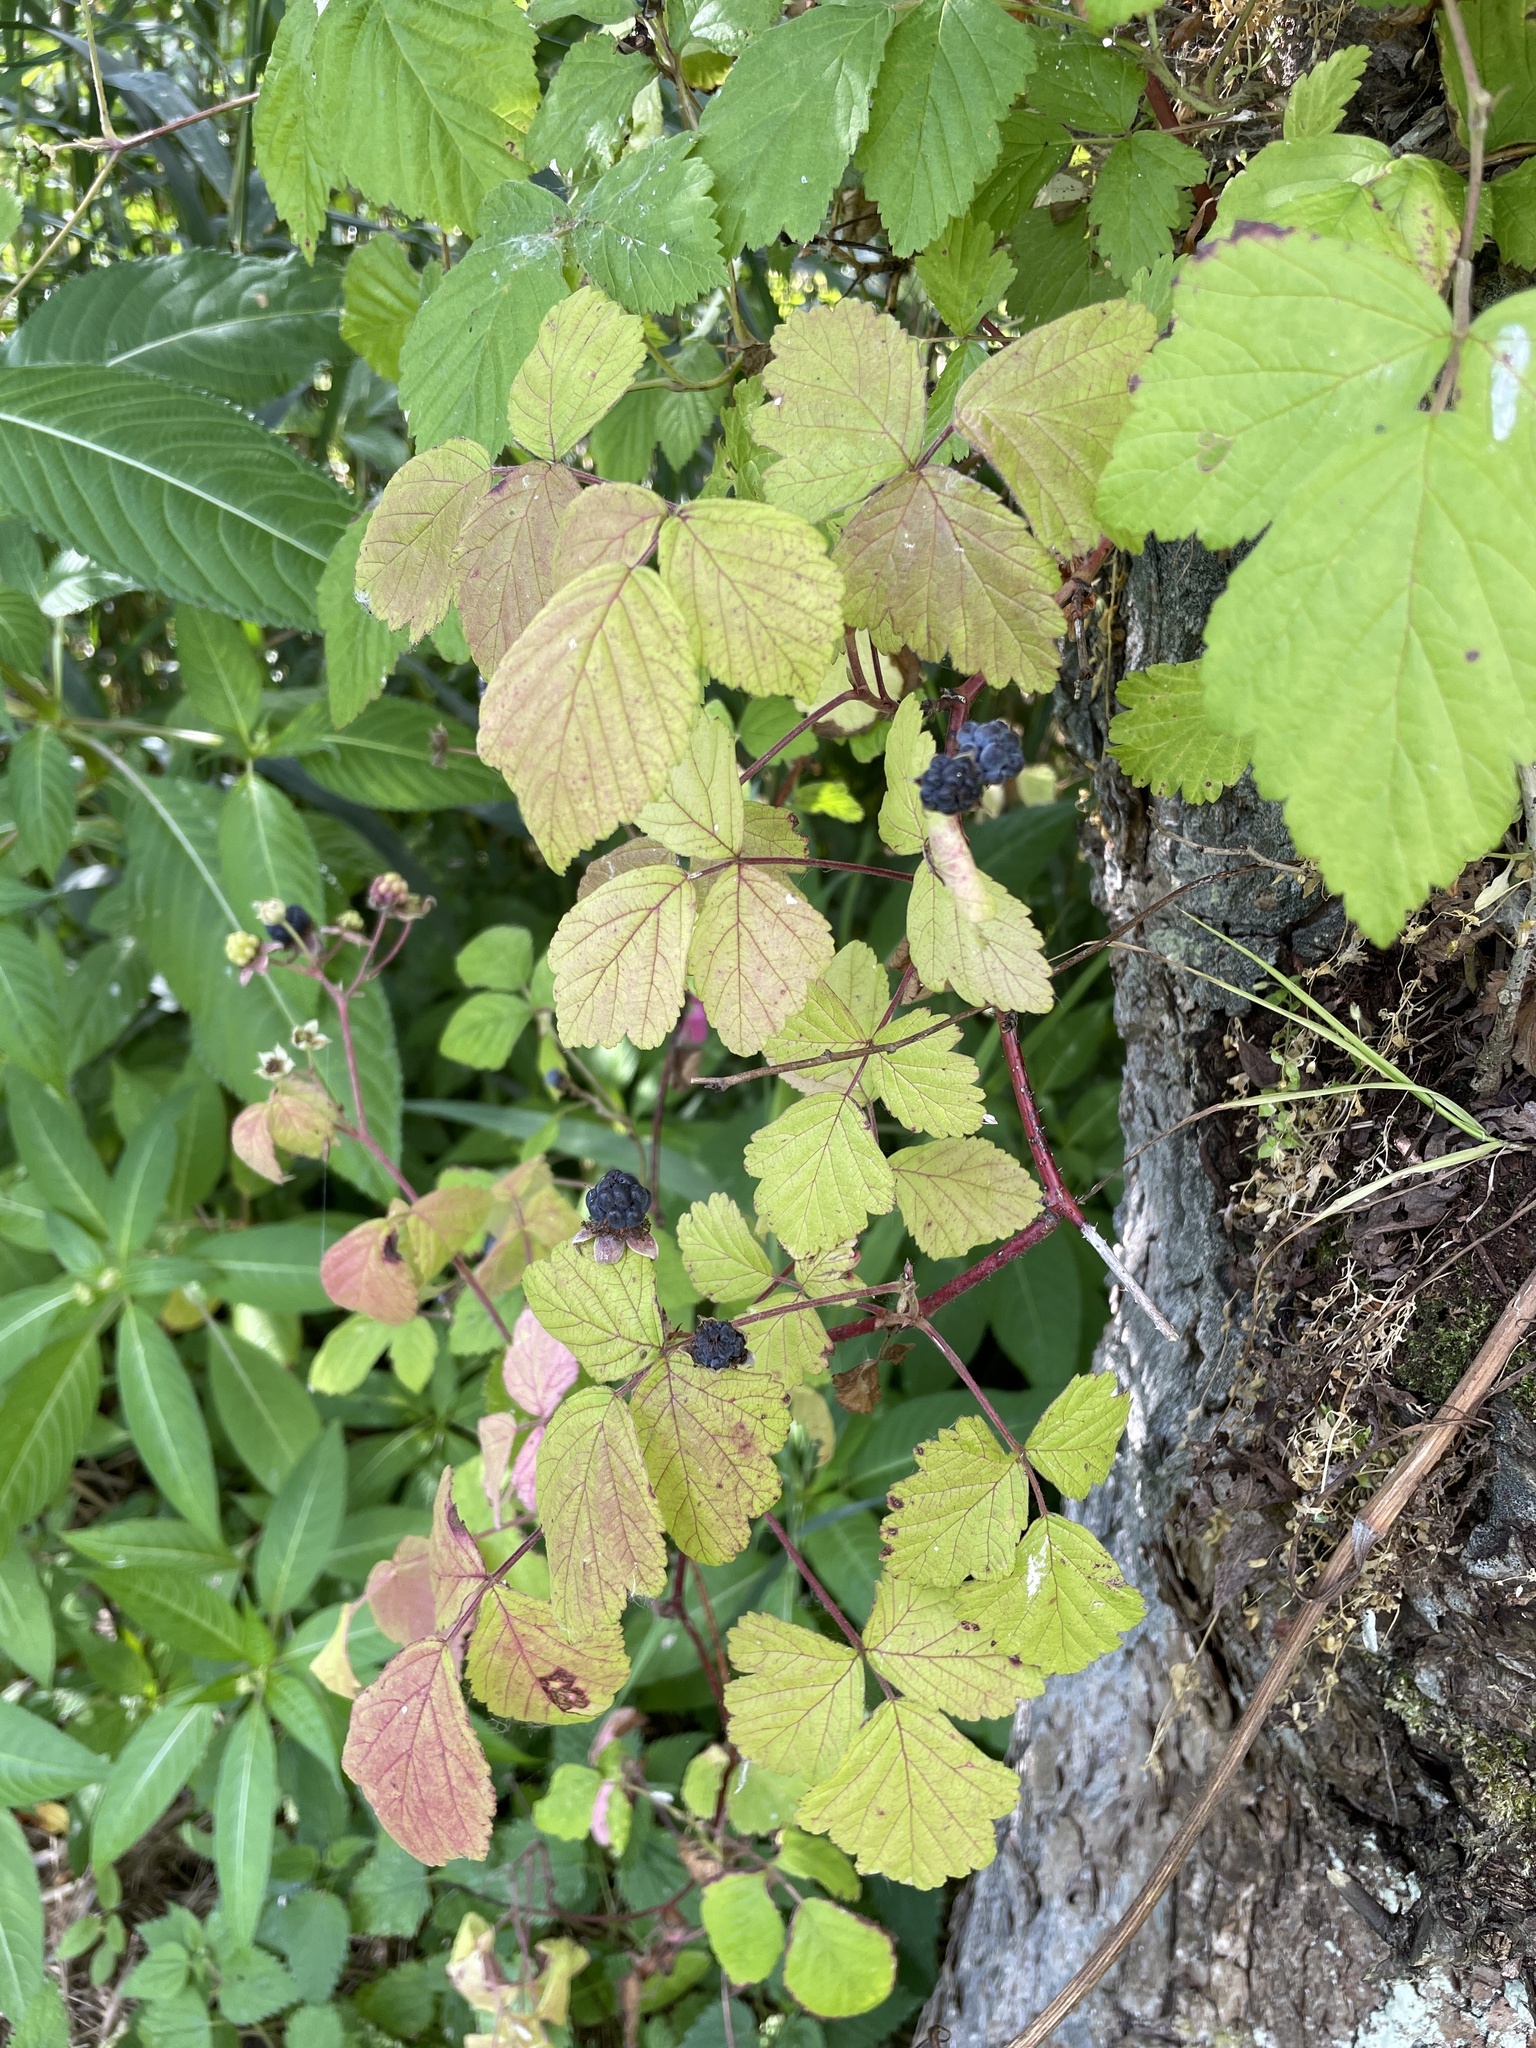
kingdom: Plantae
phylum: Tracheophyta
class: Magnoliopsida
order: Rosales
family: Rosaceae
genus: Rubus
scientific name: Rubus caesius
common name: Dewberry
